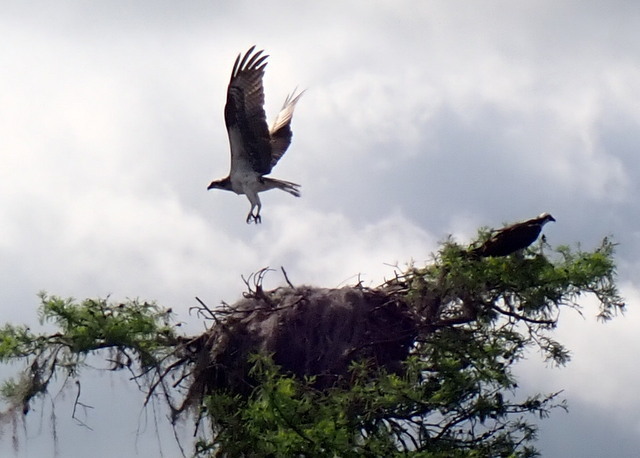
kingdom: Animalia
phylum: Chordata
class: Aves
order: Accipitriformes
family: Pandionidae
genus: Pandion
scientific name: Pandion haliaetus
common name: Osprey
